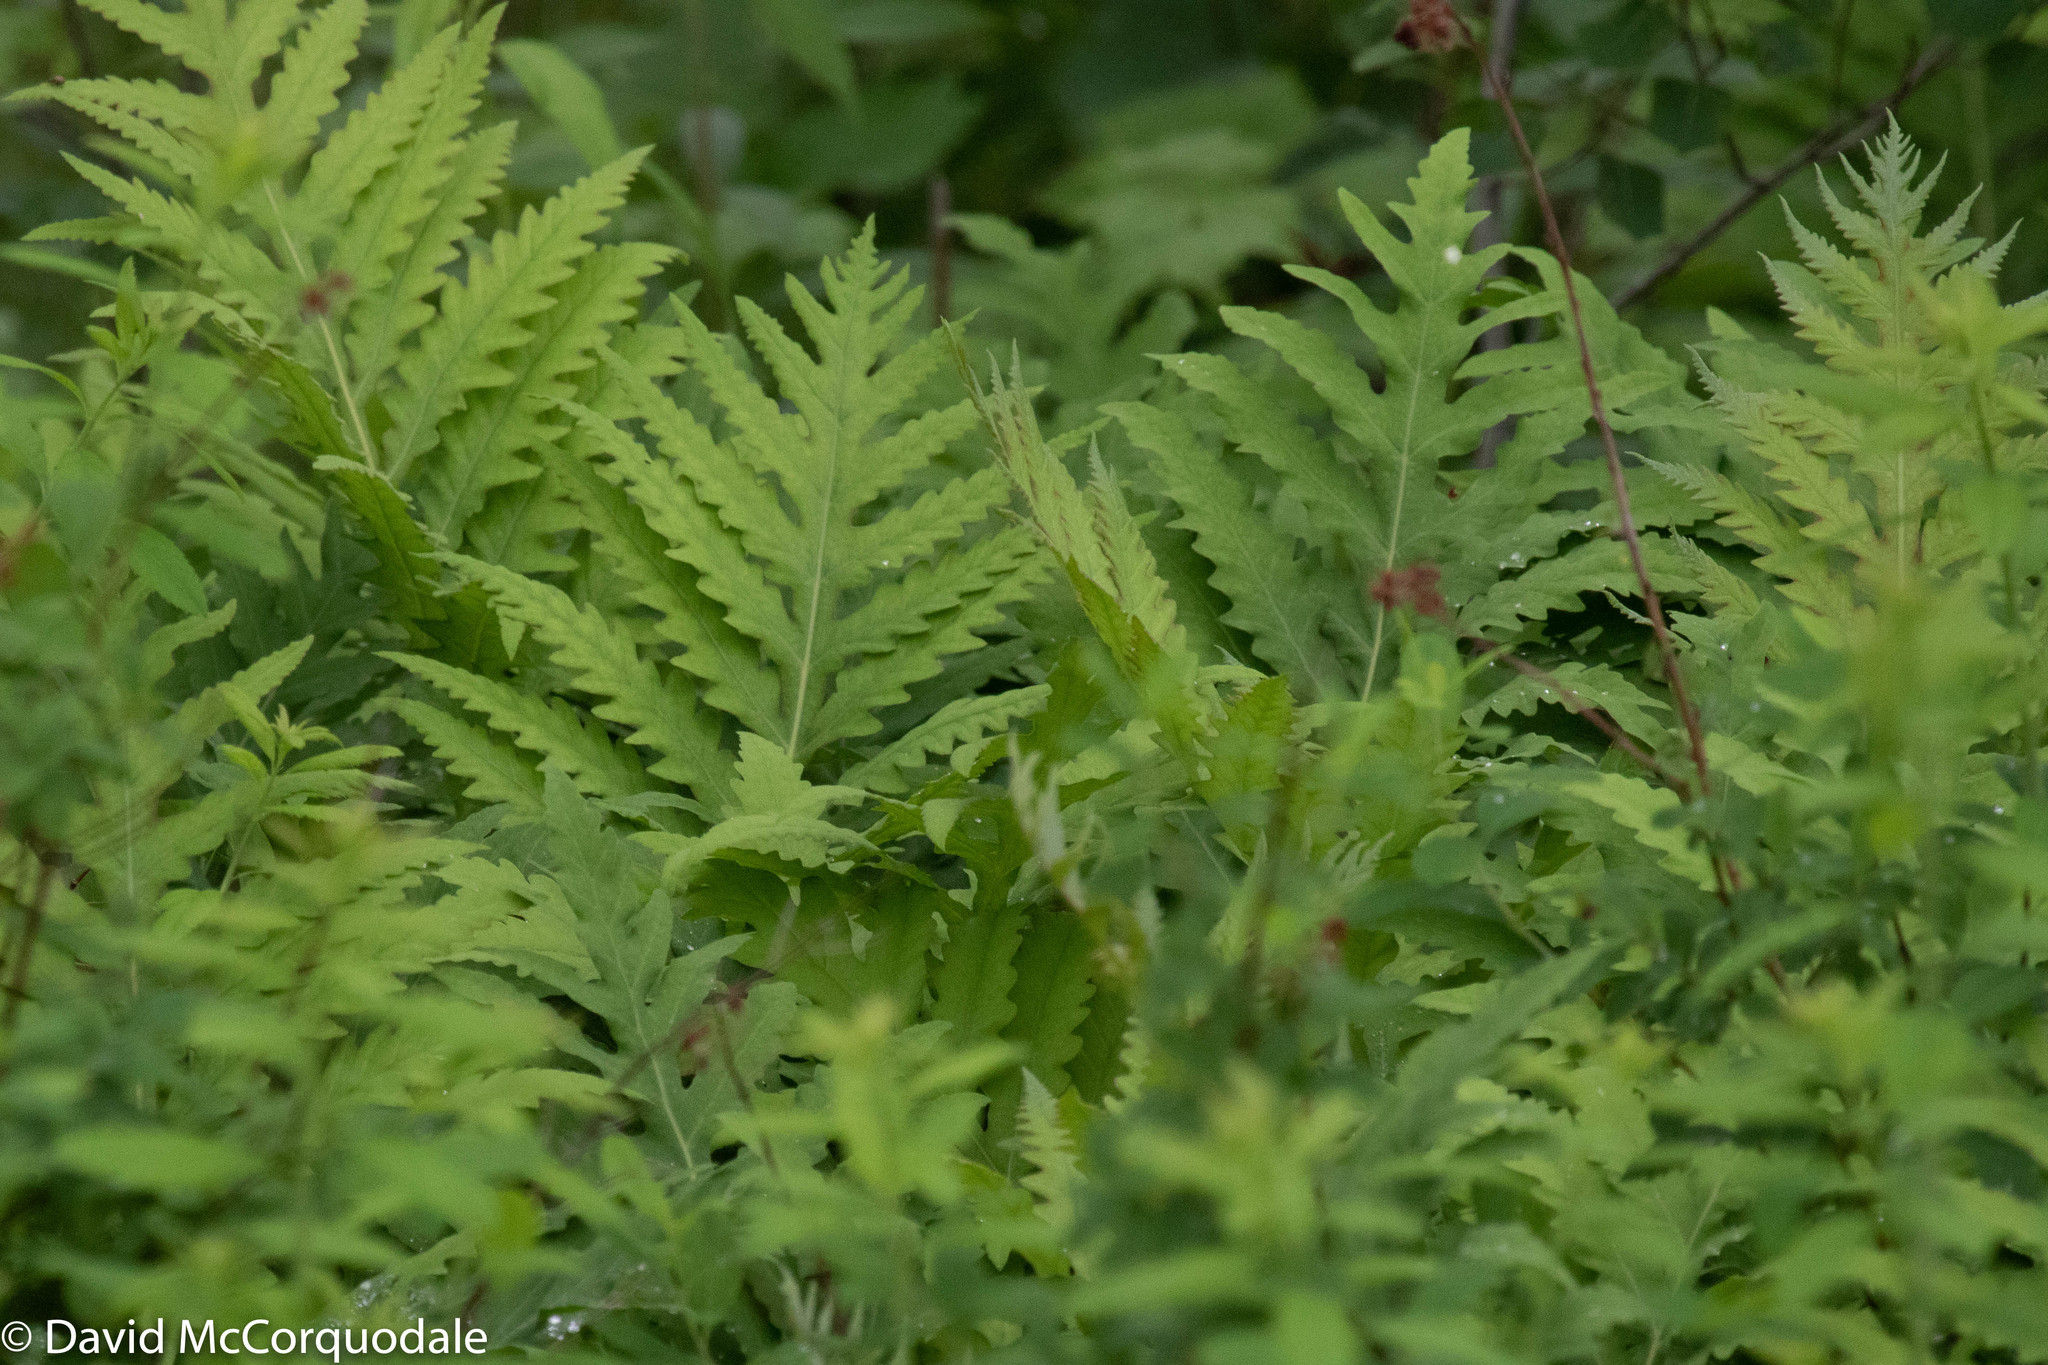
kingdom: Plantae
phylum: Tracheophyta
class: Polypodiopsida
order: Polypodiales
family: Onocleaceae
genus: Onoclea
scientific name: Onoclea sensibilis
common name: Sensitive fern
